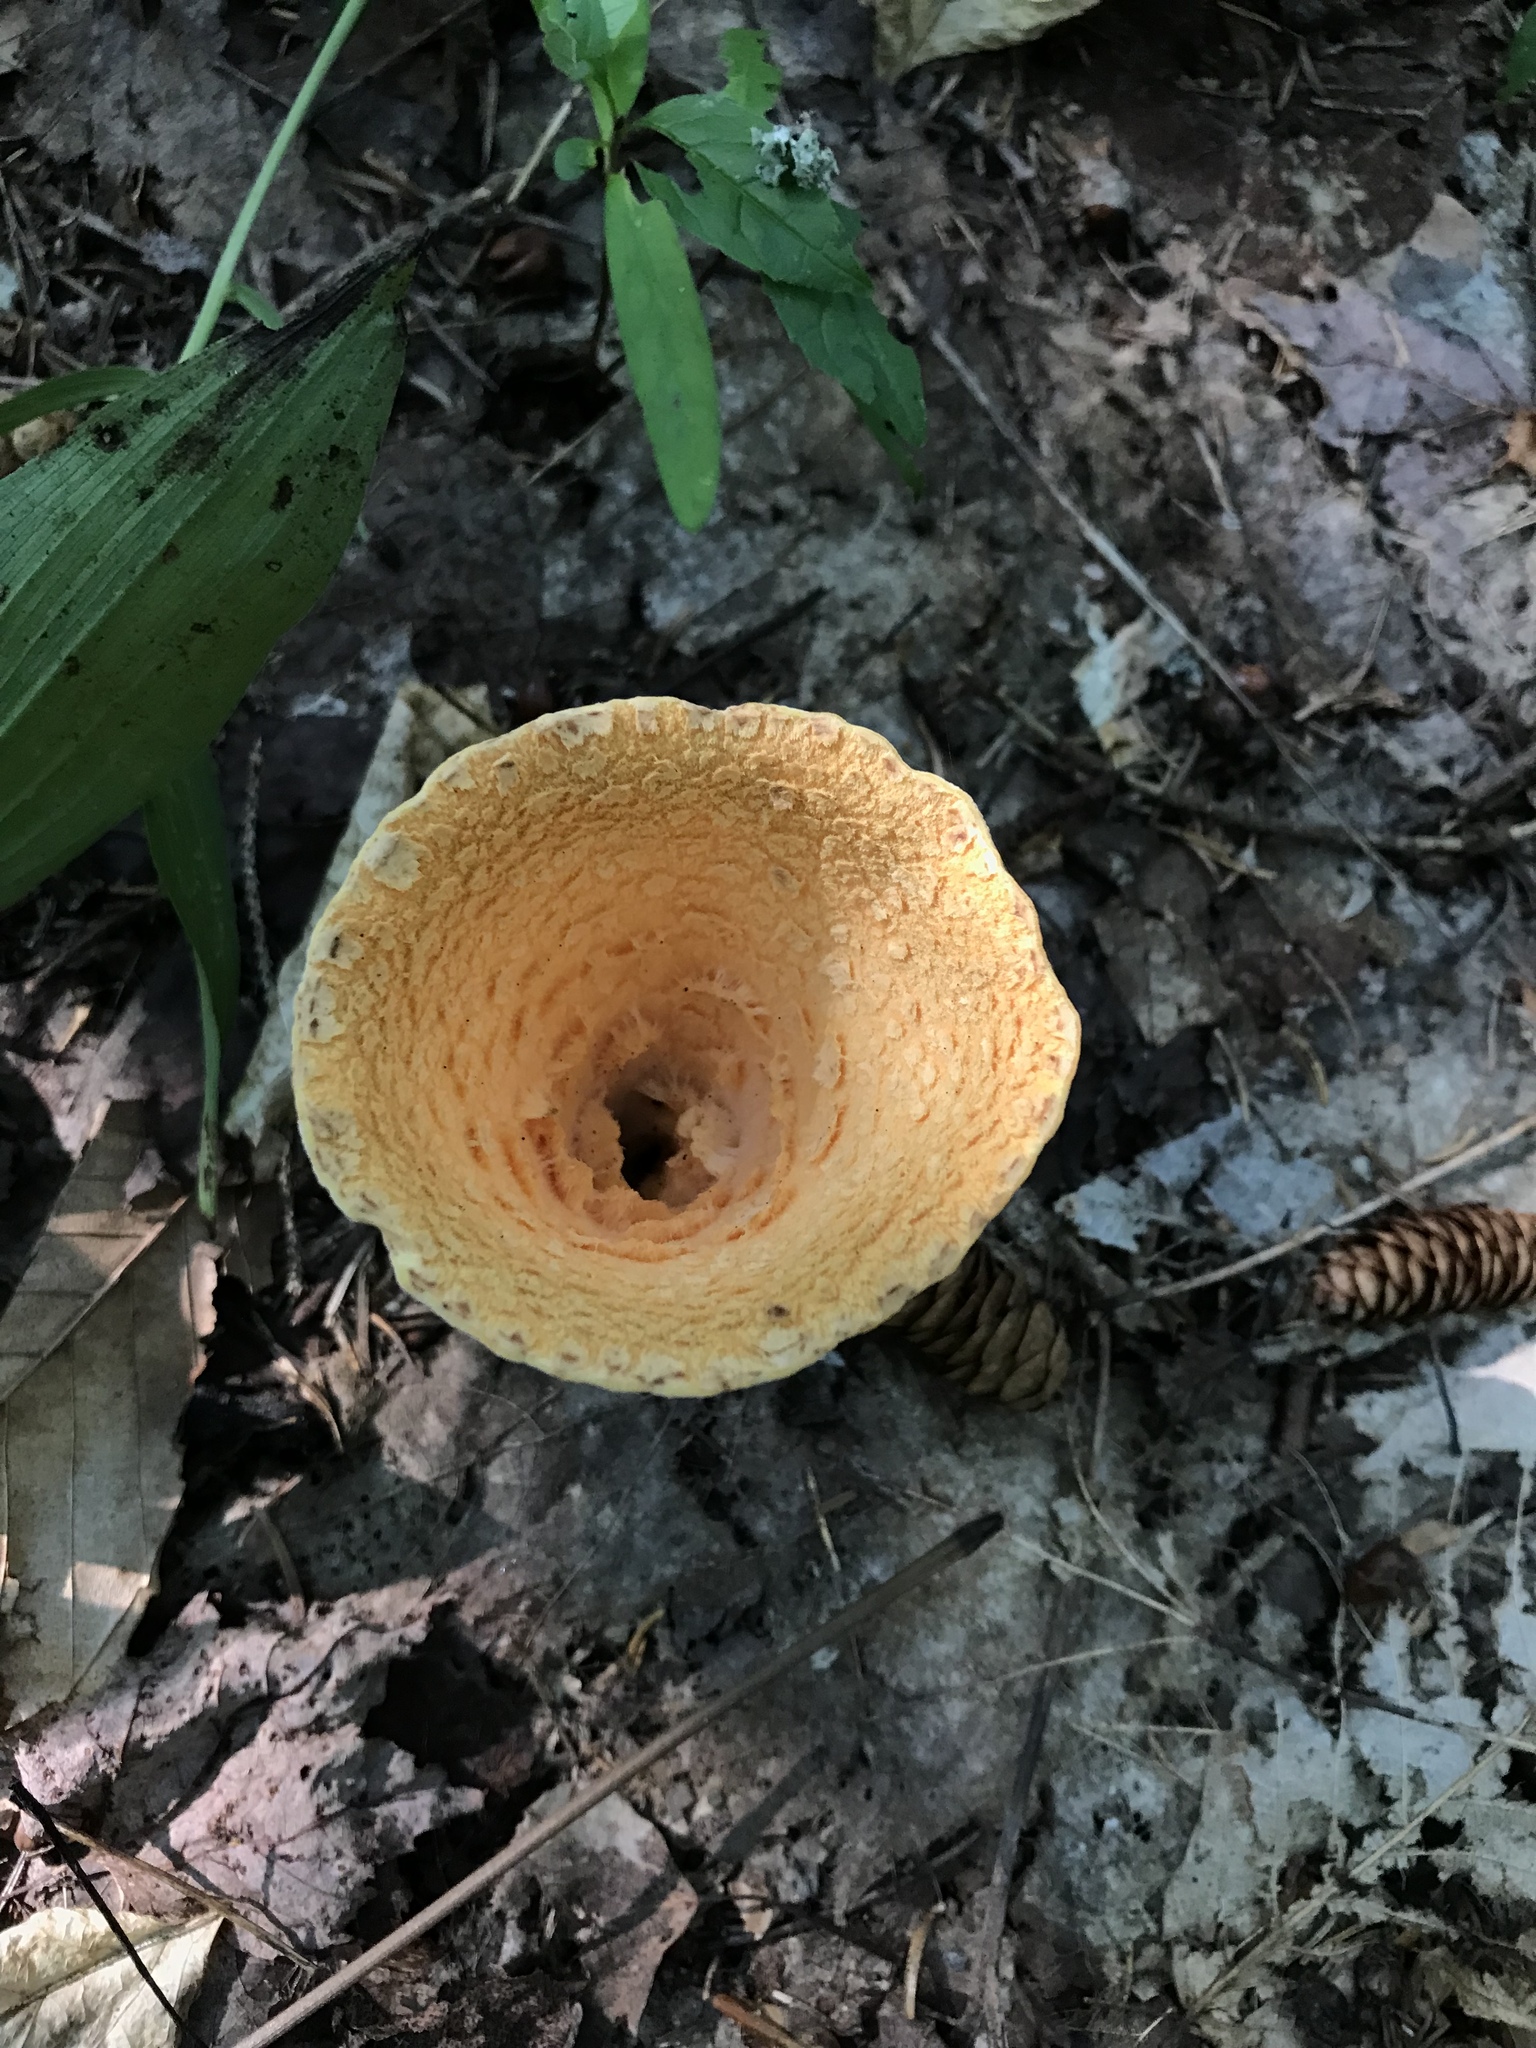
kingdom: Fungi
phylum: Basidiomycota
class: Agaricomycetes
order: Gomphales
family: Gomphaceae
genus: Turbinellus
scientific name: Turbinellus floccosus
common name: Scaly chanterelle
